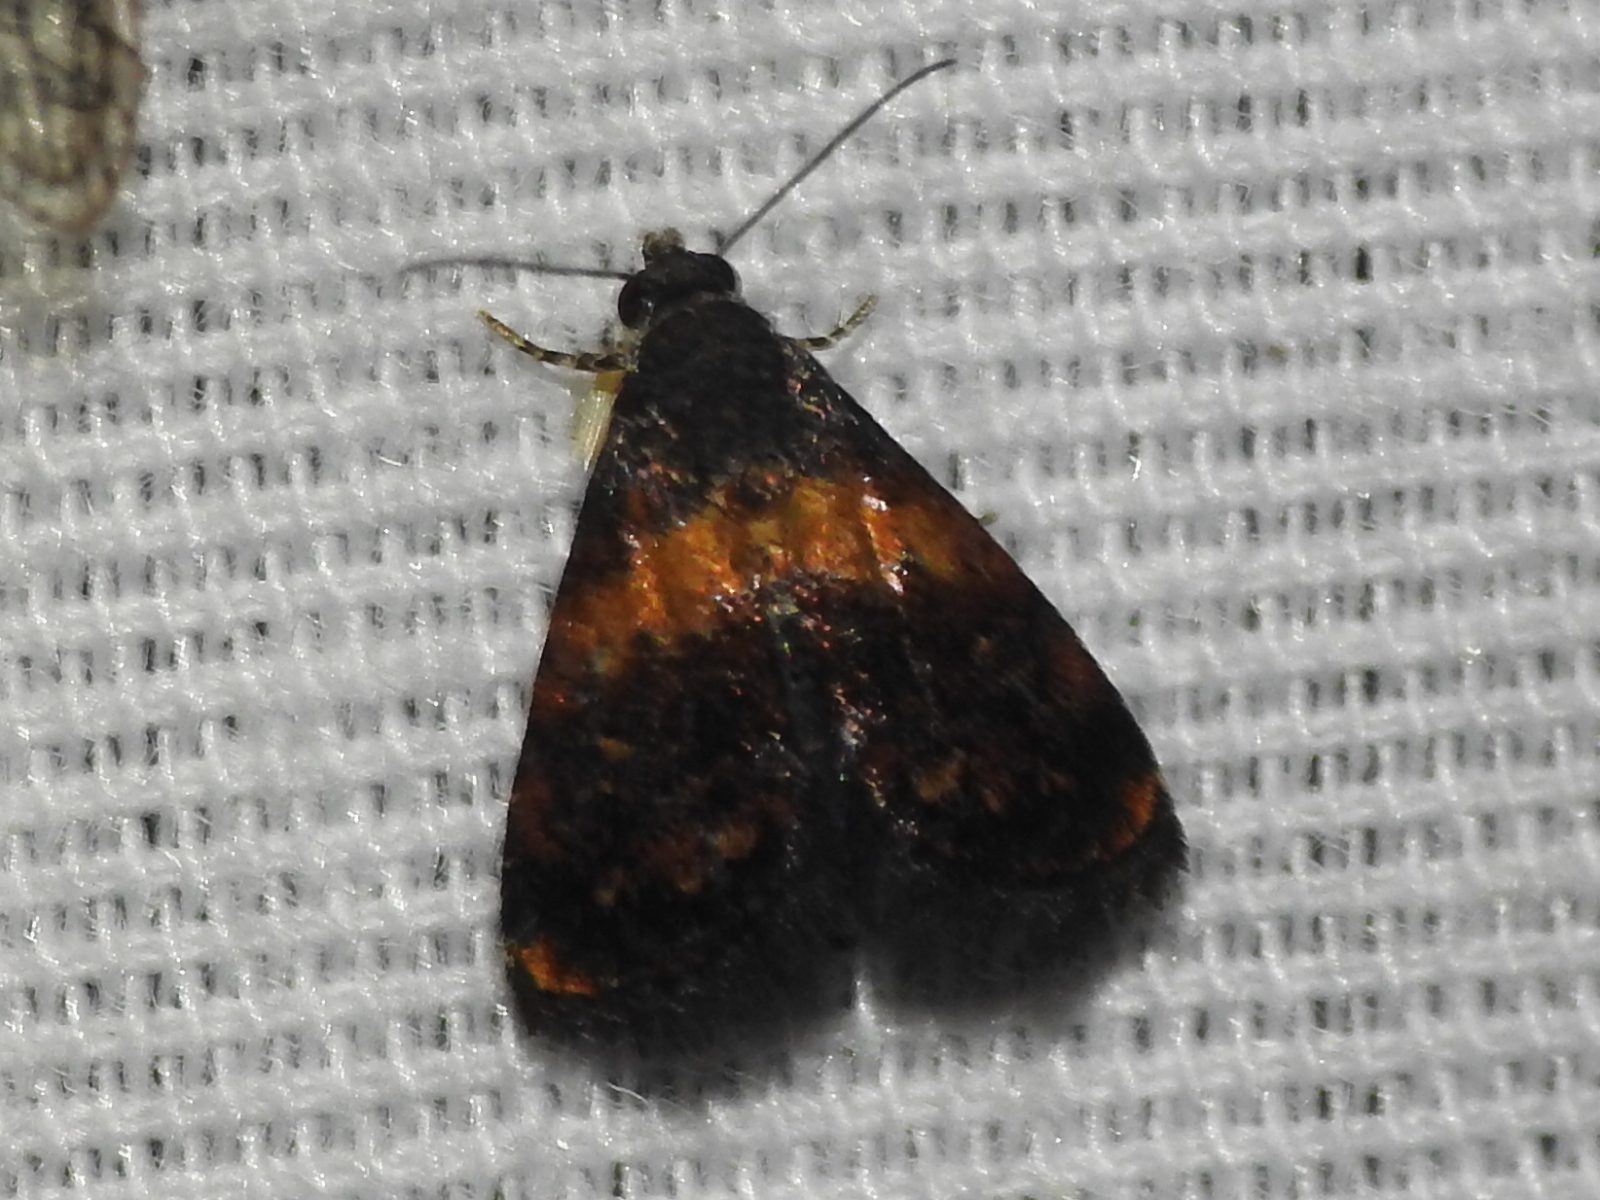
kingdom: Animalia
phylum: Arthropoda
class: Insecta
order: Lepidoptera
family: Noctuidae
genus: Tripudia
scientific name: Tripudia flavofasciata
